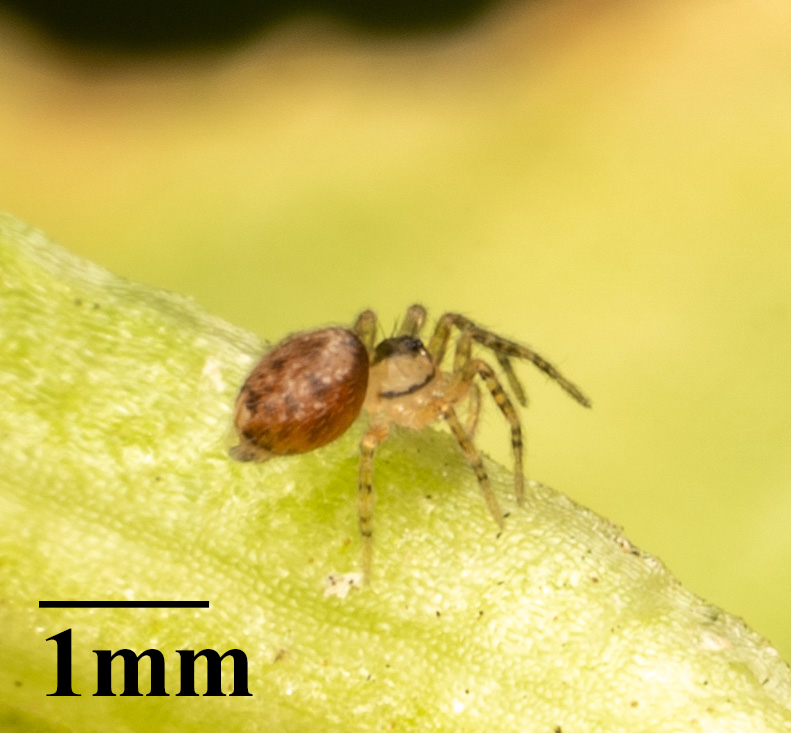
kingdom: Animalia
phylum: Arthropoda
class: Arachnida
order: Araneae
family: Oecobiidae
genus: Oecobius
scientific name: Oecobius navus
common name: Flatmesh weaver
